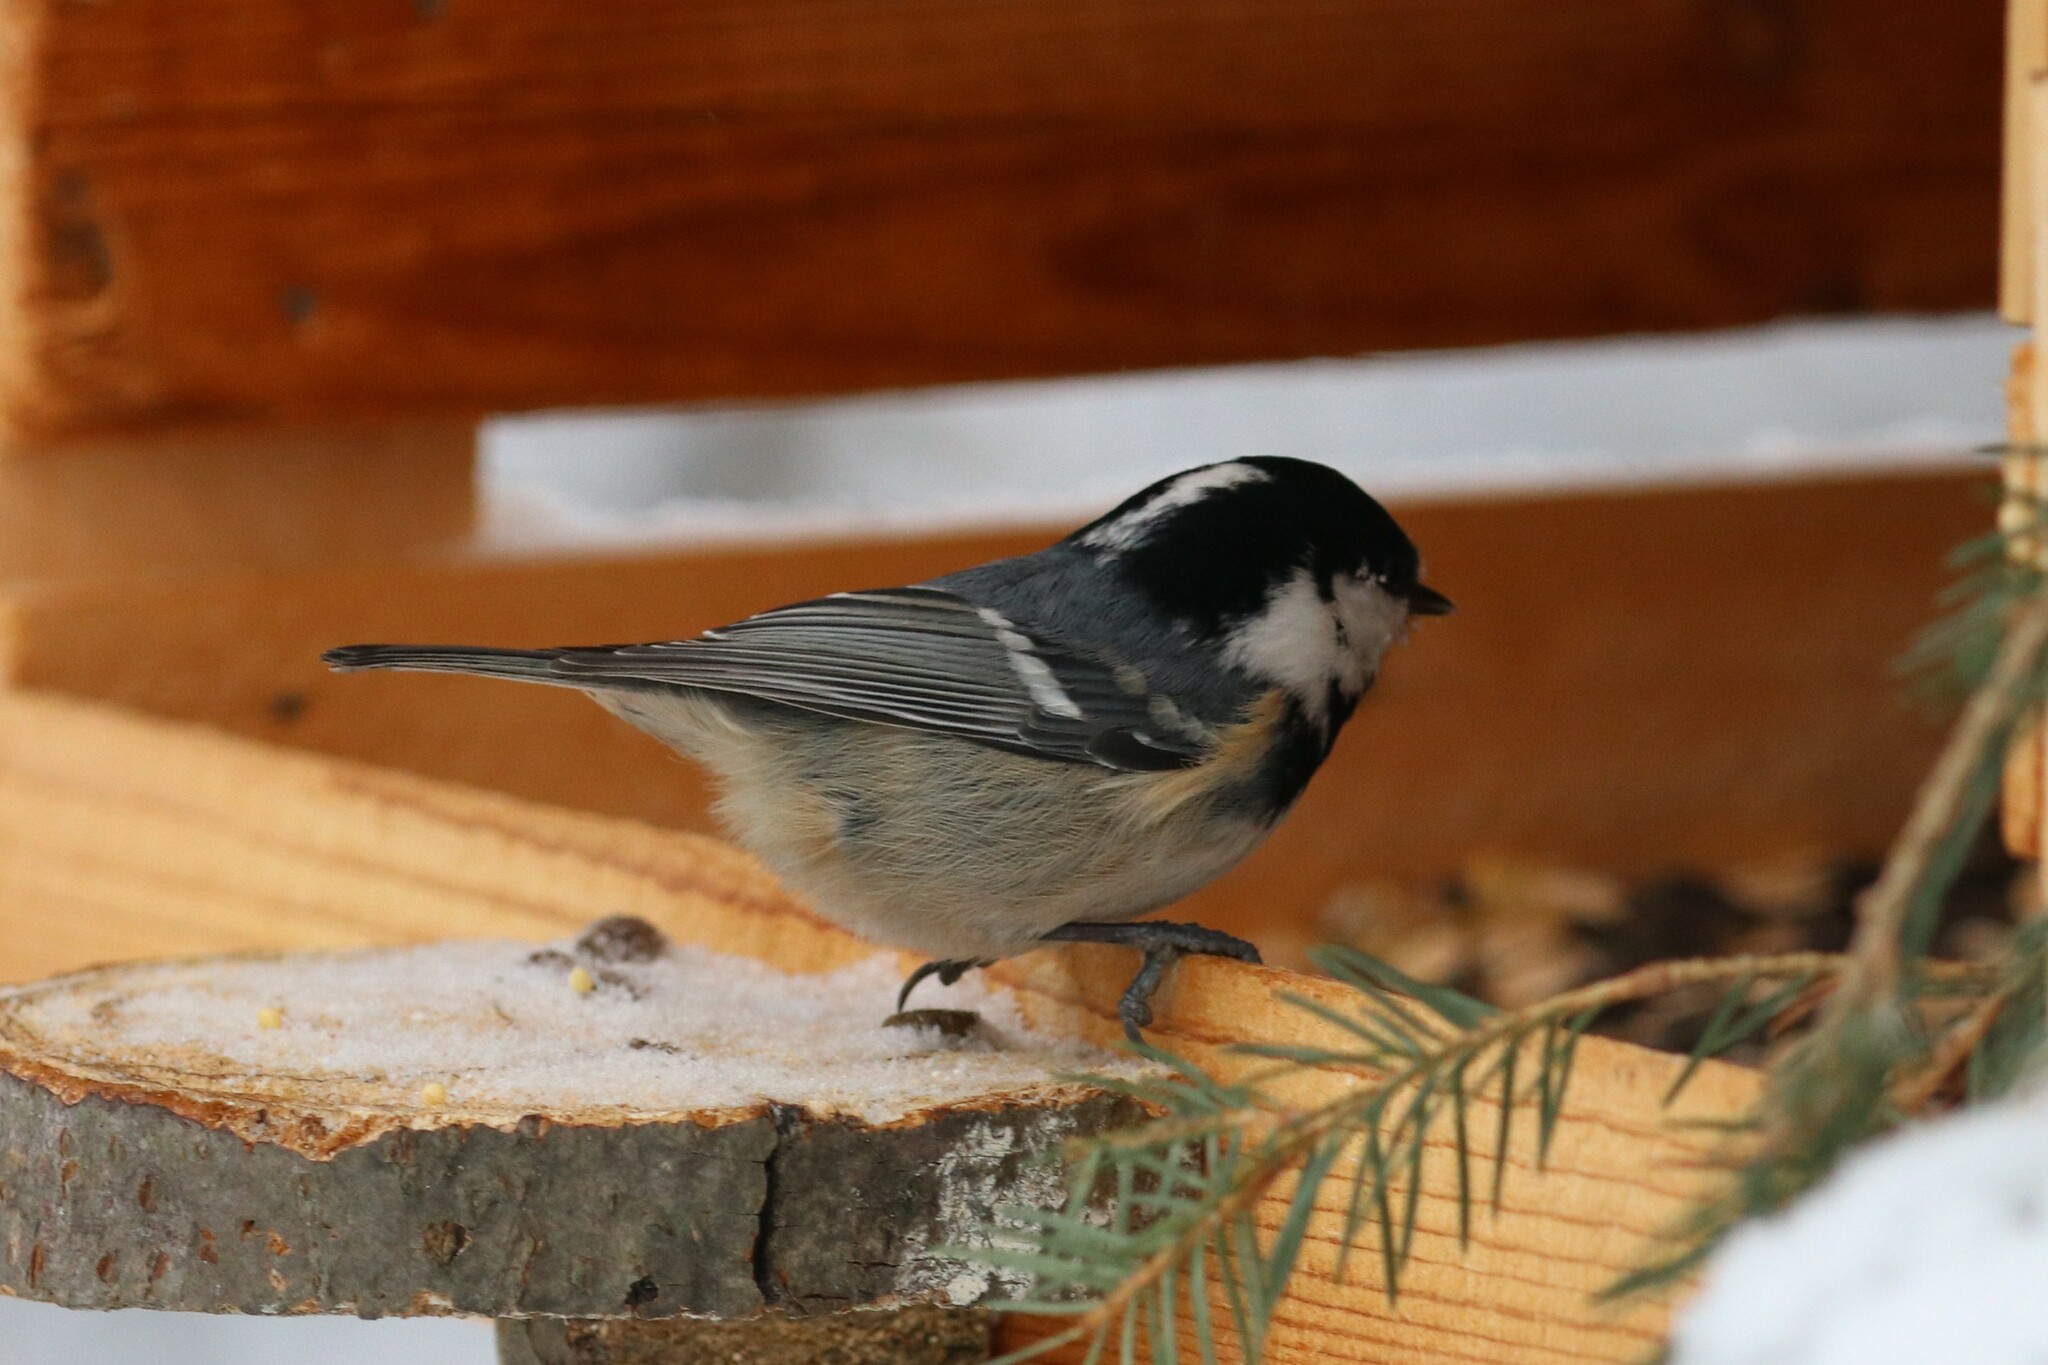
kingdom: Animalia
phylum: Chordata
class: Aves
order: Passeriformes
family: Paridae
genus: Periparus
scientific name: Periparus ater
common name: Coal tit
